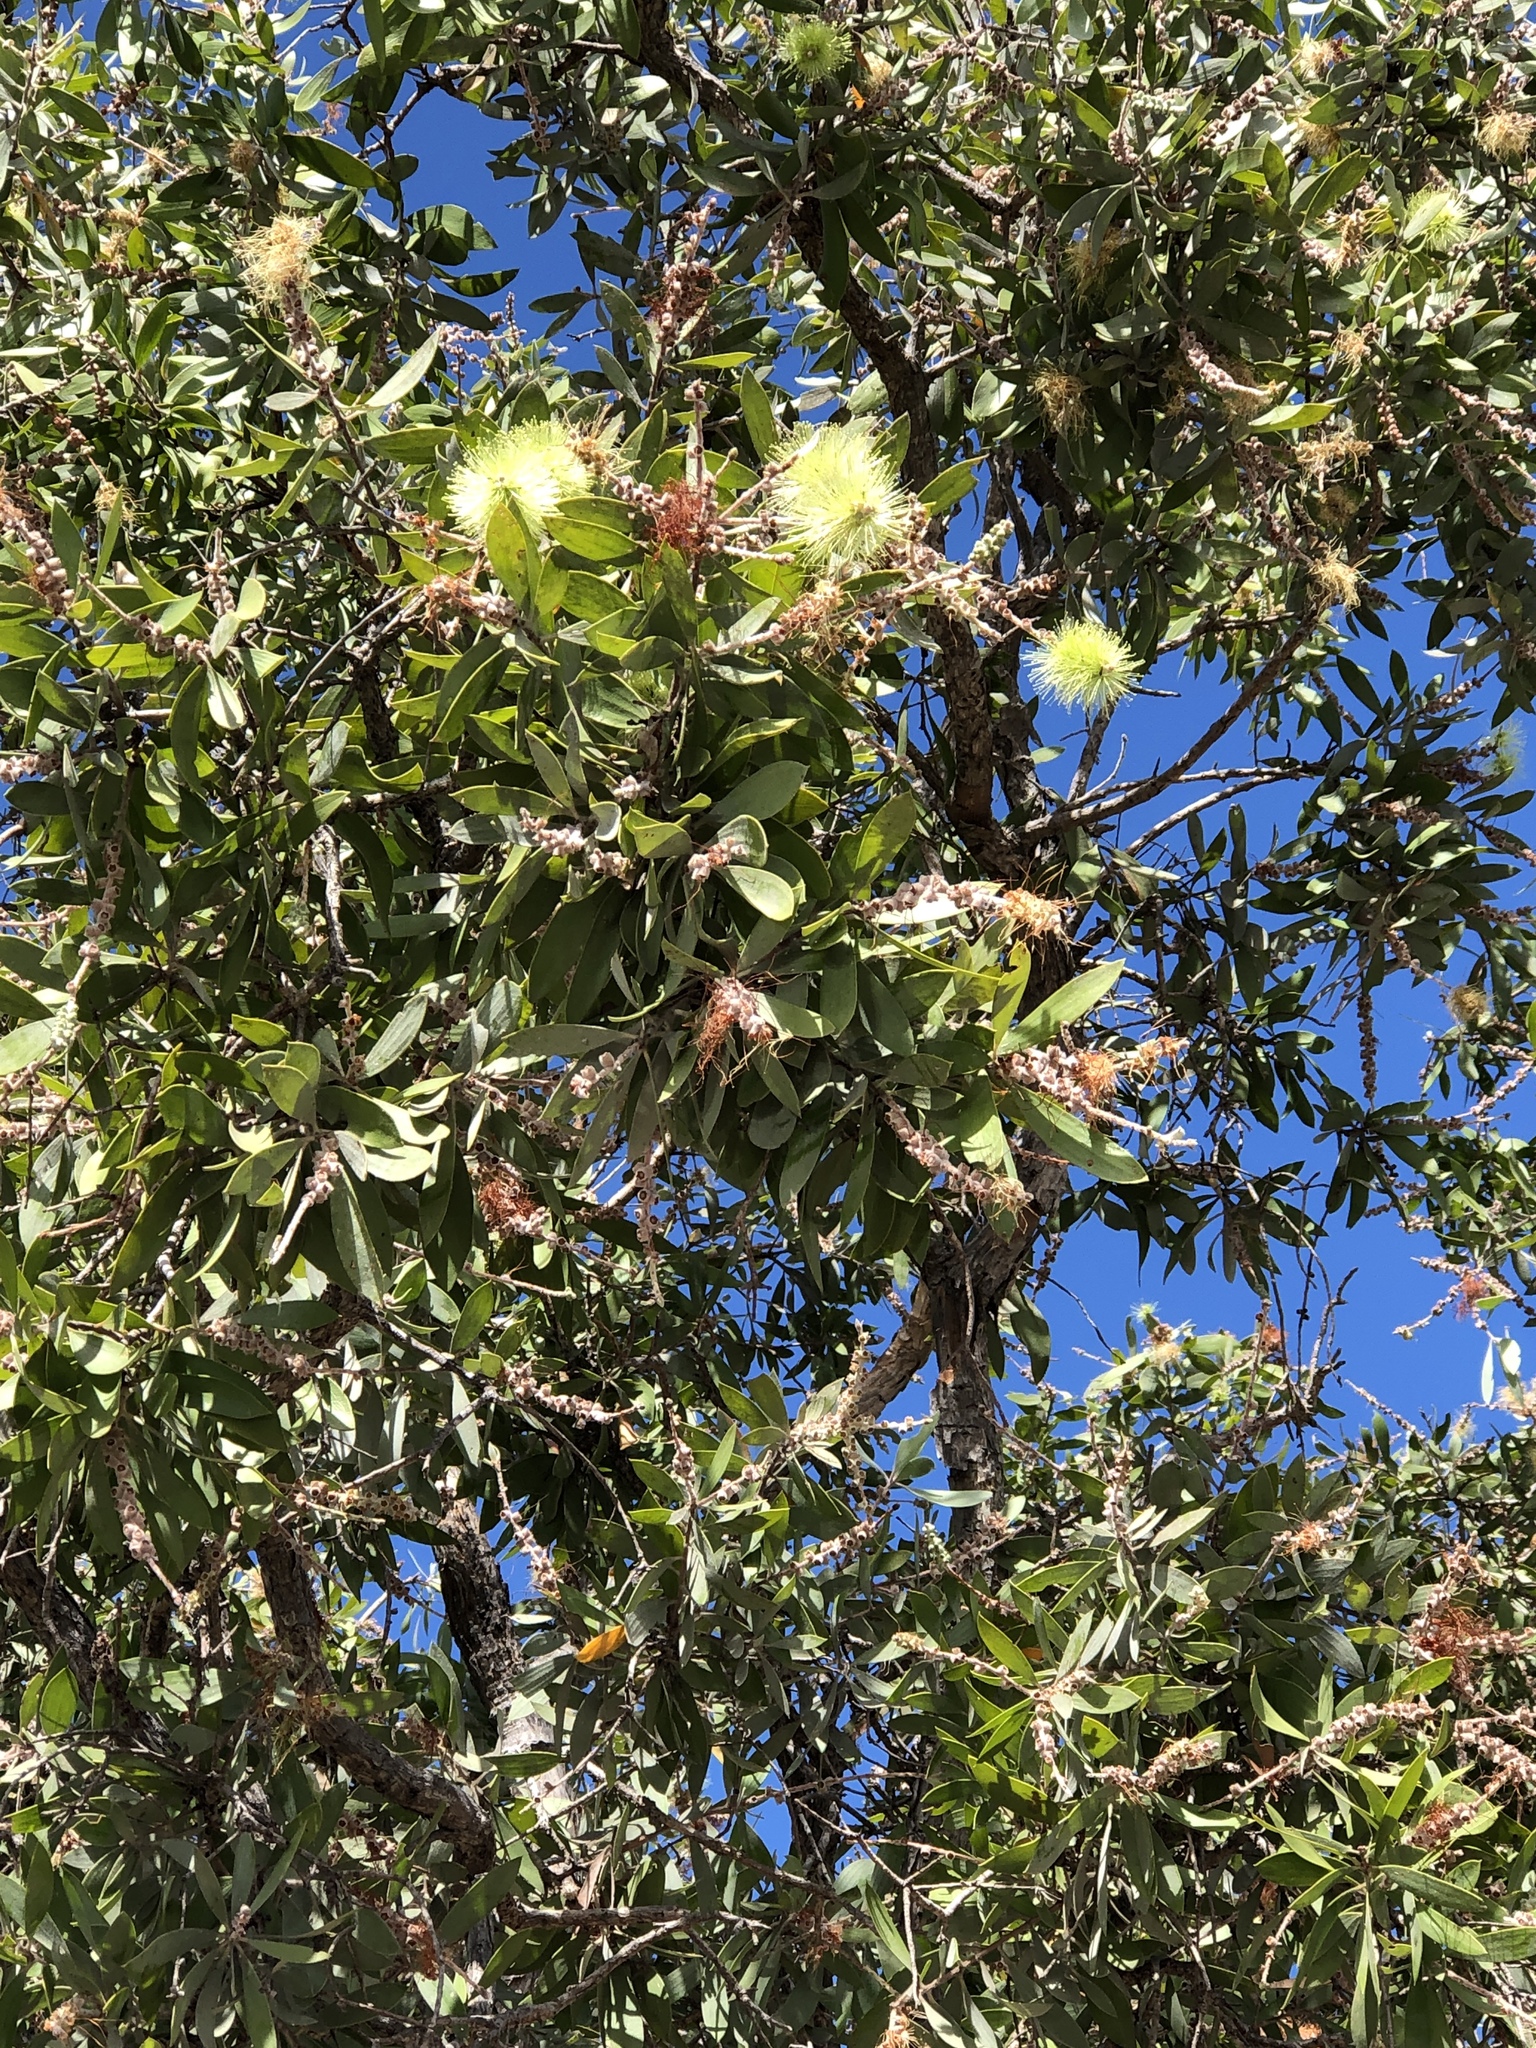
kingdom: Plantae
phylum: Tracheophyta
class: Magnoliopsida
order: Myrtales
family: Myrtaceae
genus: Melaleuca
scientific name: Melaleuca nervosa
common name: Fibrebark
